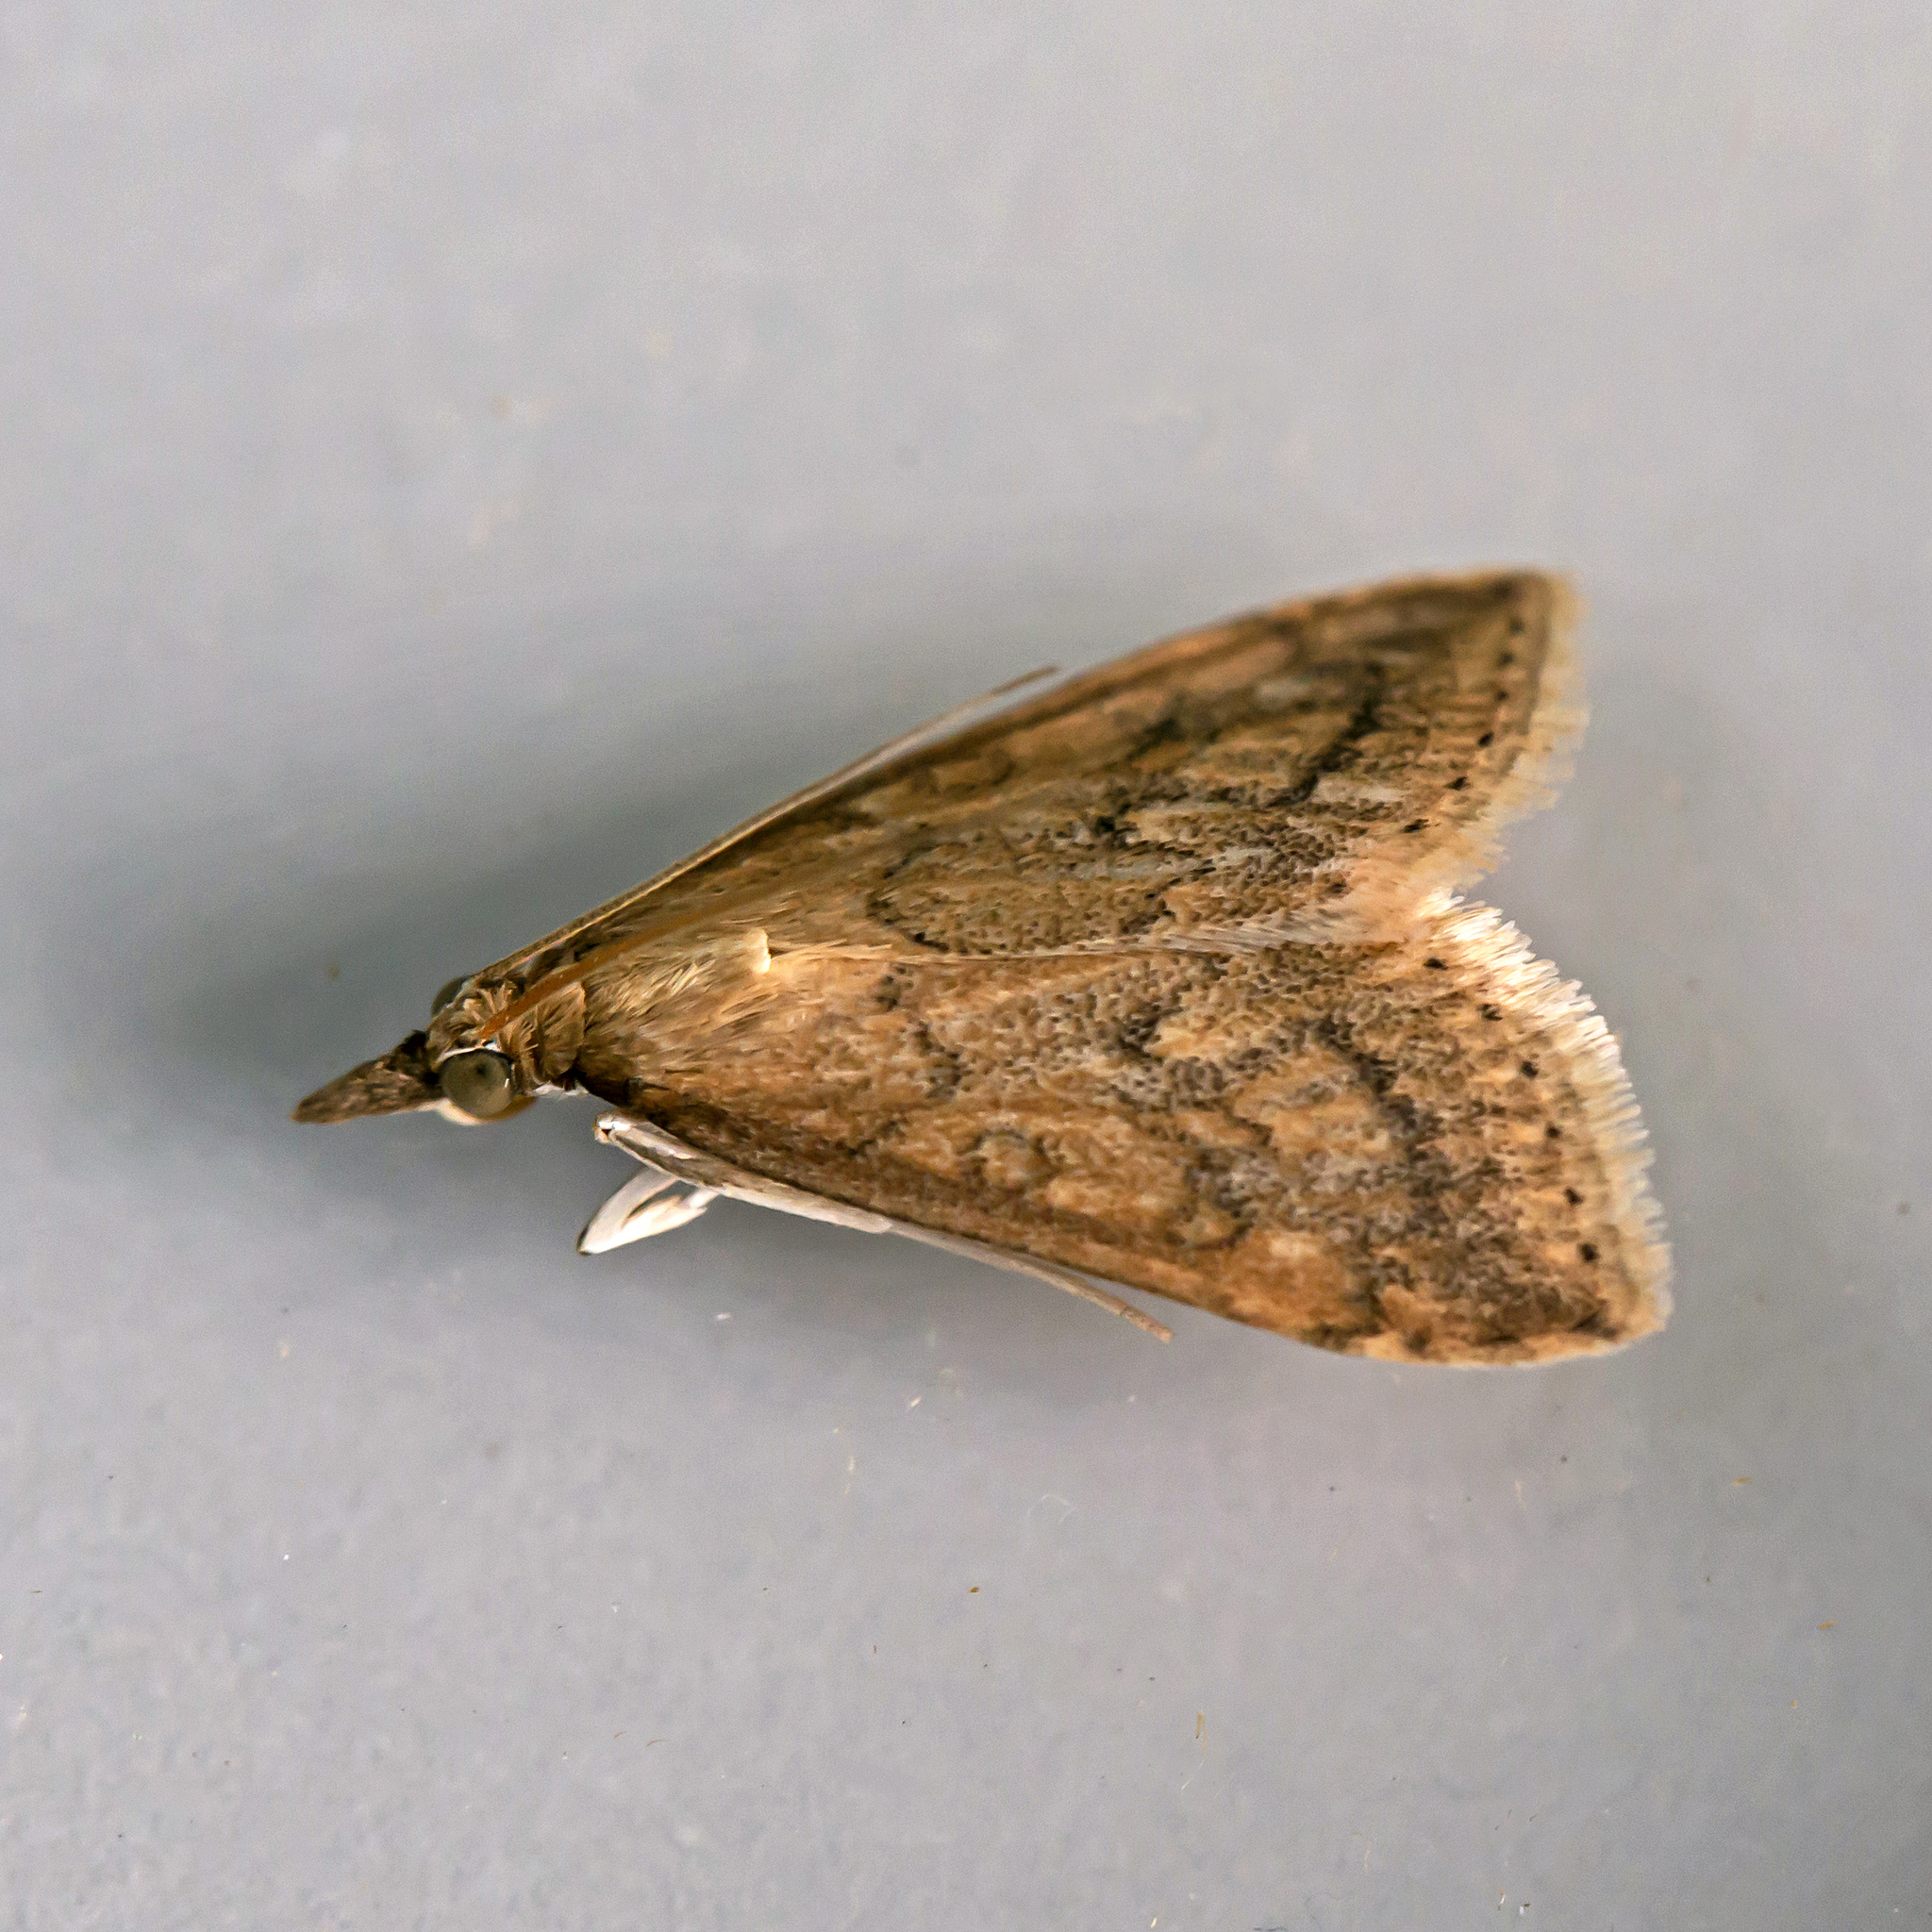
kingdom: Animalia
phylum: Arthropoda
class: Insecta
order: Lepidoptera
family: Crambidae
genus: Udea
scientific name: Udea rubigalis
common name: Celery leaftier moth
